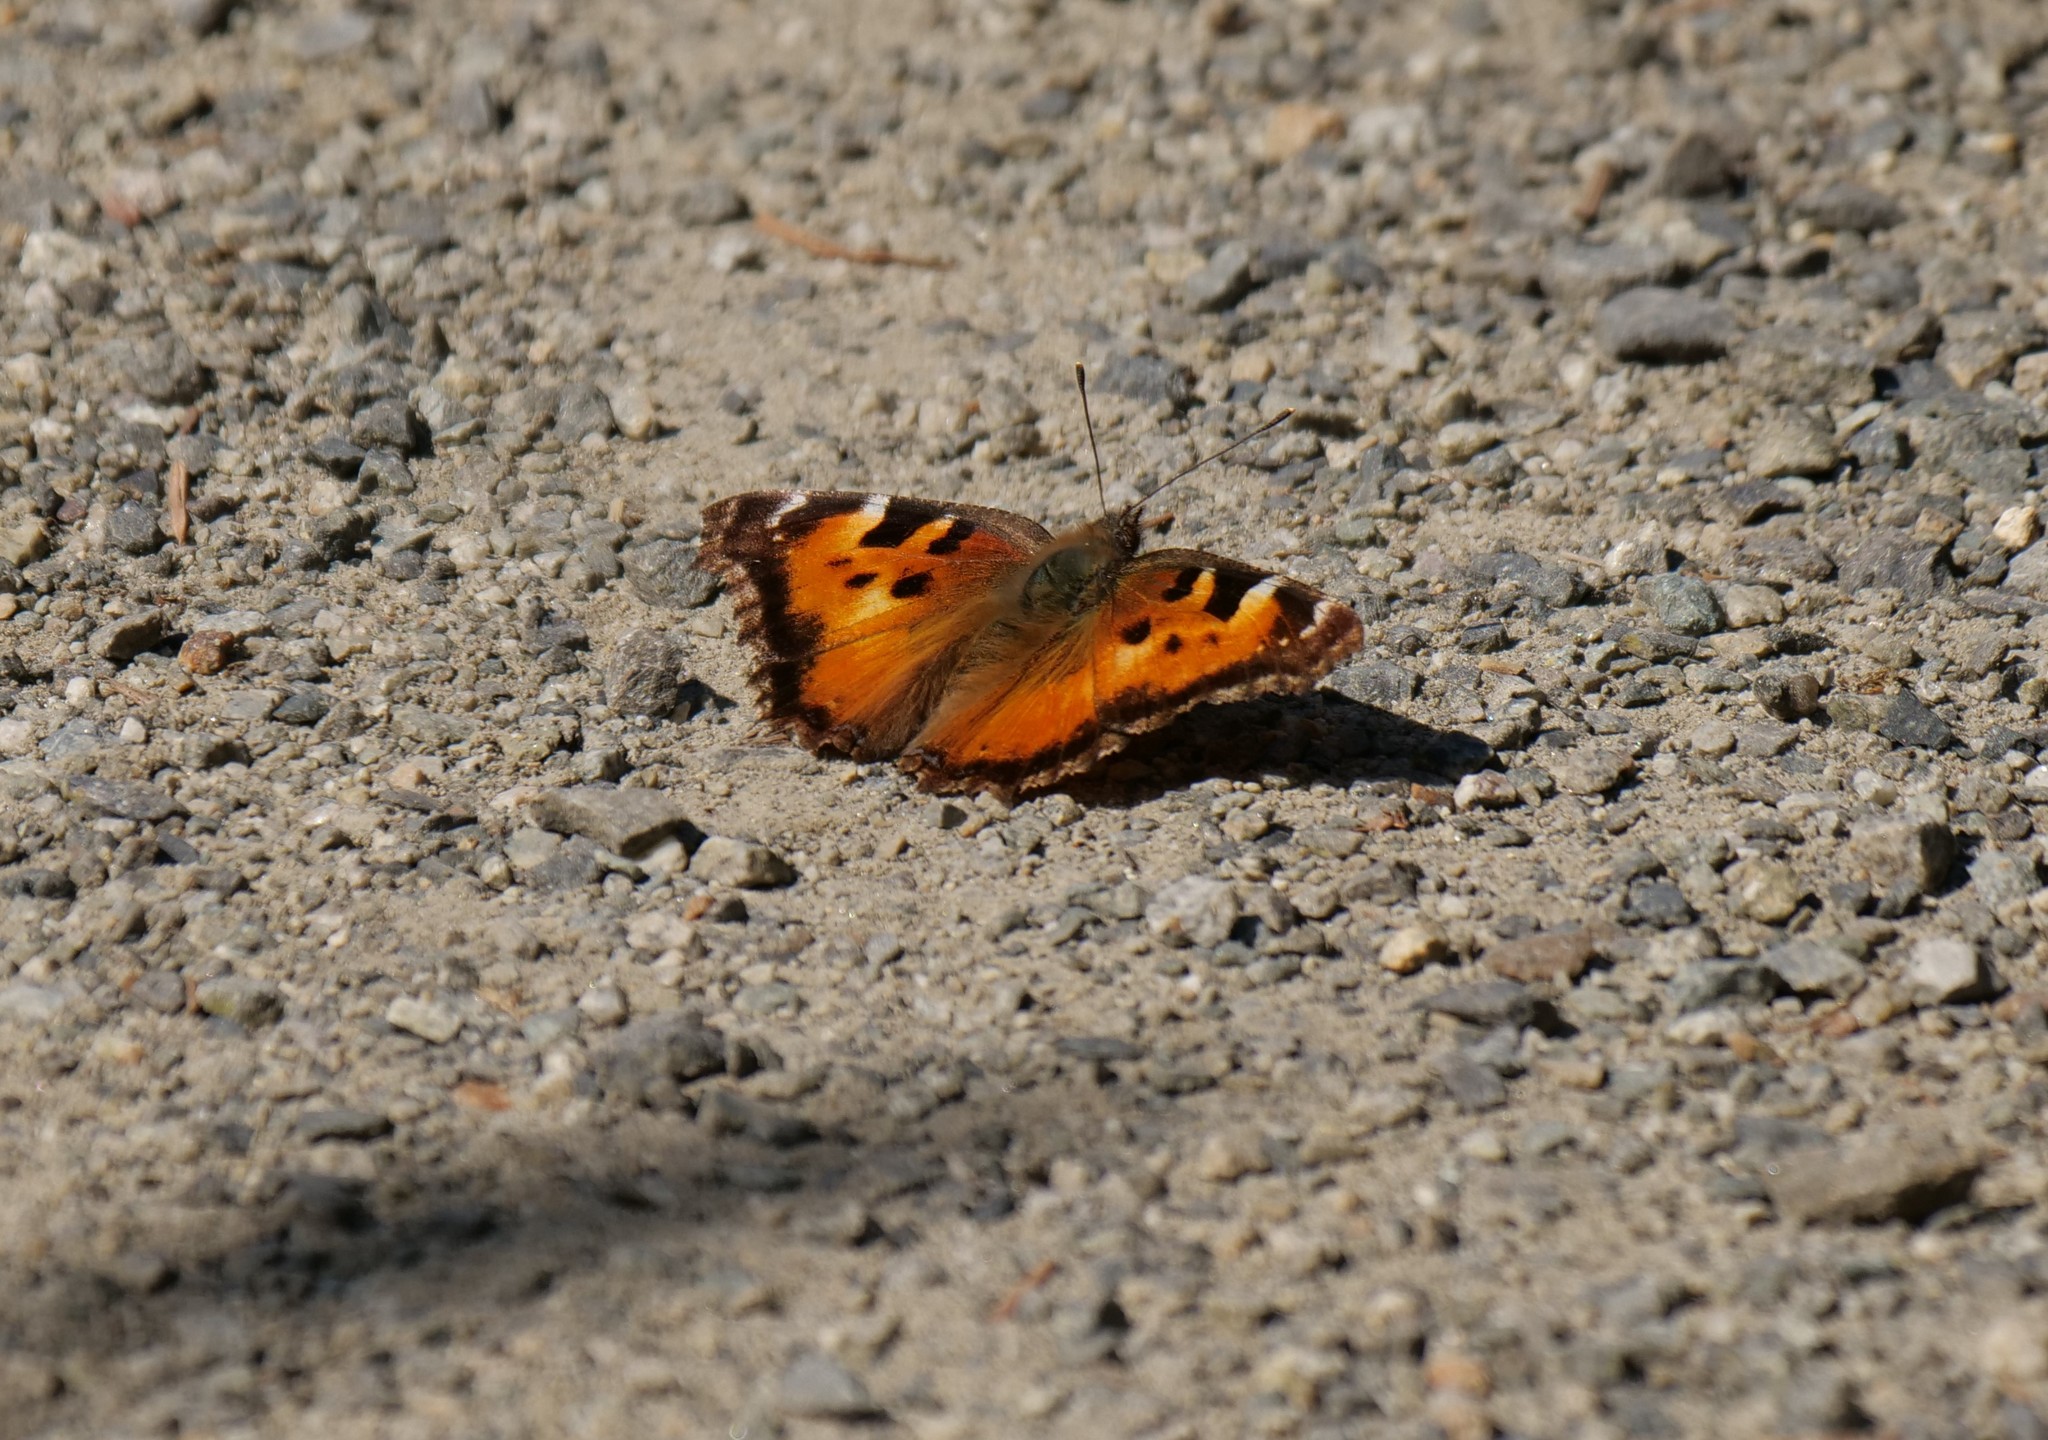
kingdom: Animalia
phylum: Arthropoda
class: Insecta
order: Lepidoptera
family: Nymphalidae
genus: Nymphalis
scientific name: Nymphalis californica
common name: California tortoiseshell
